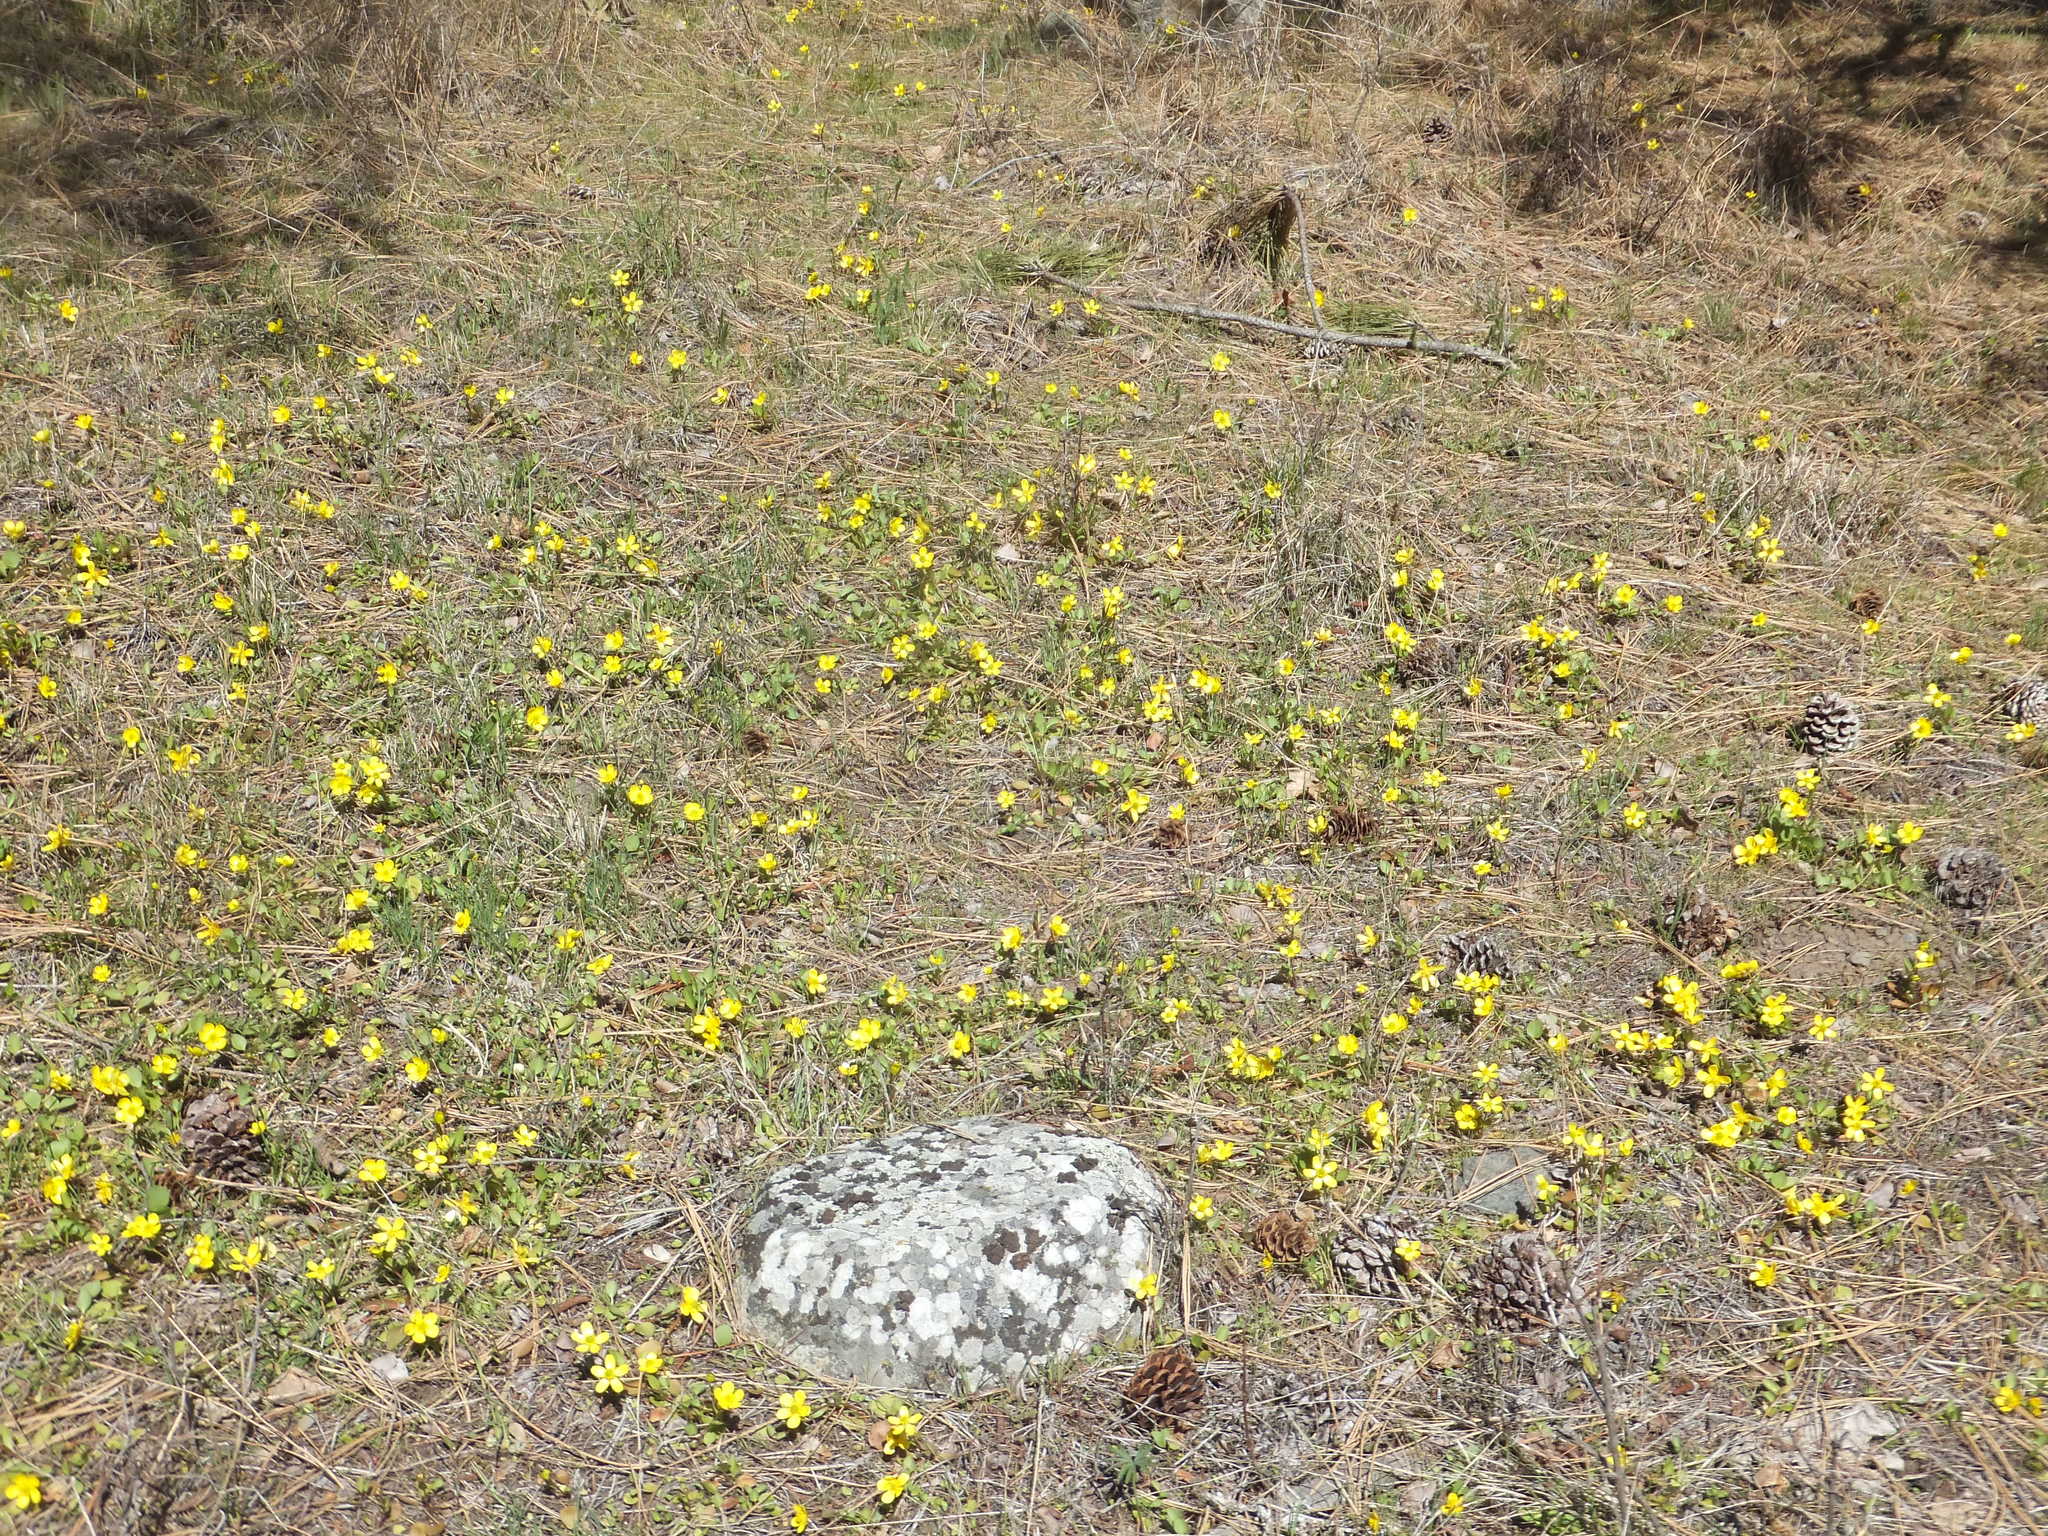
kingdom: Plantae
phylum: Tracheophyta
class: Magnoliopsida
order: Ranunculales
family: Ranunculaceae
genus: Ranunculus
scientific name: Ranunculus glaberrimus
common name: Sagebrush buttercup
